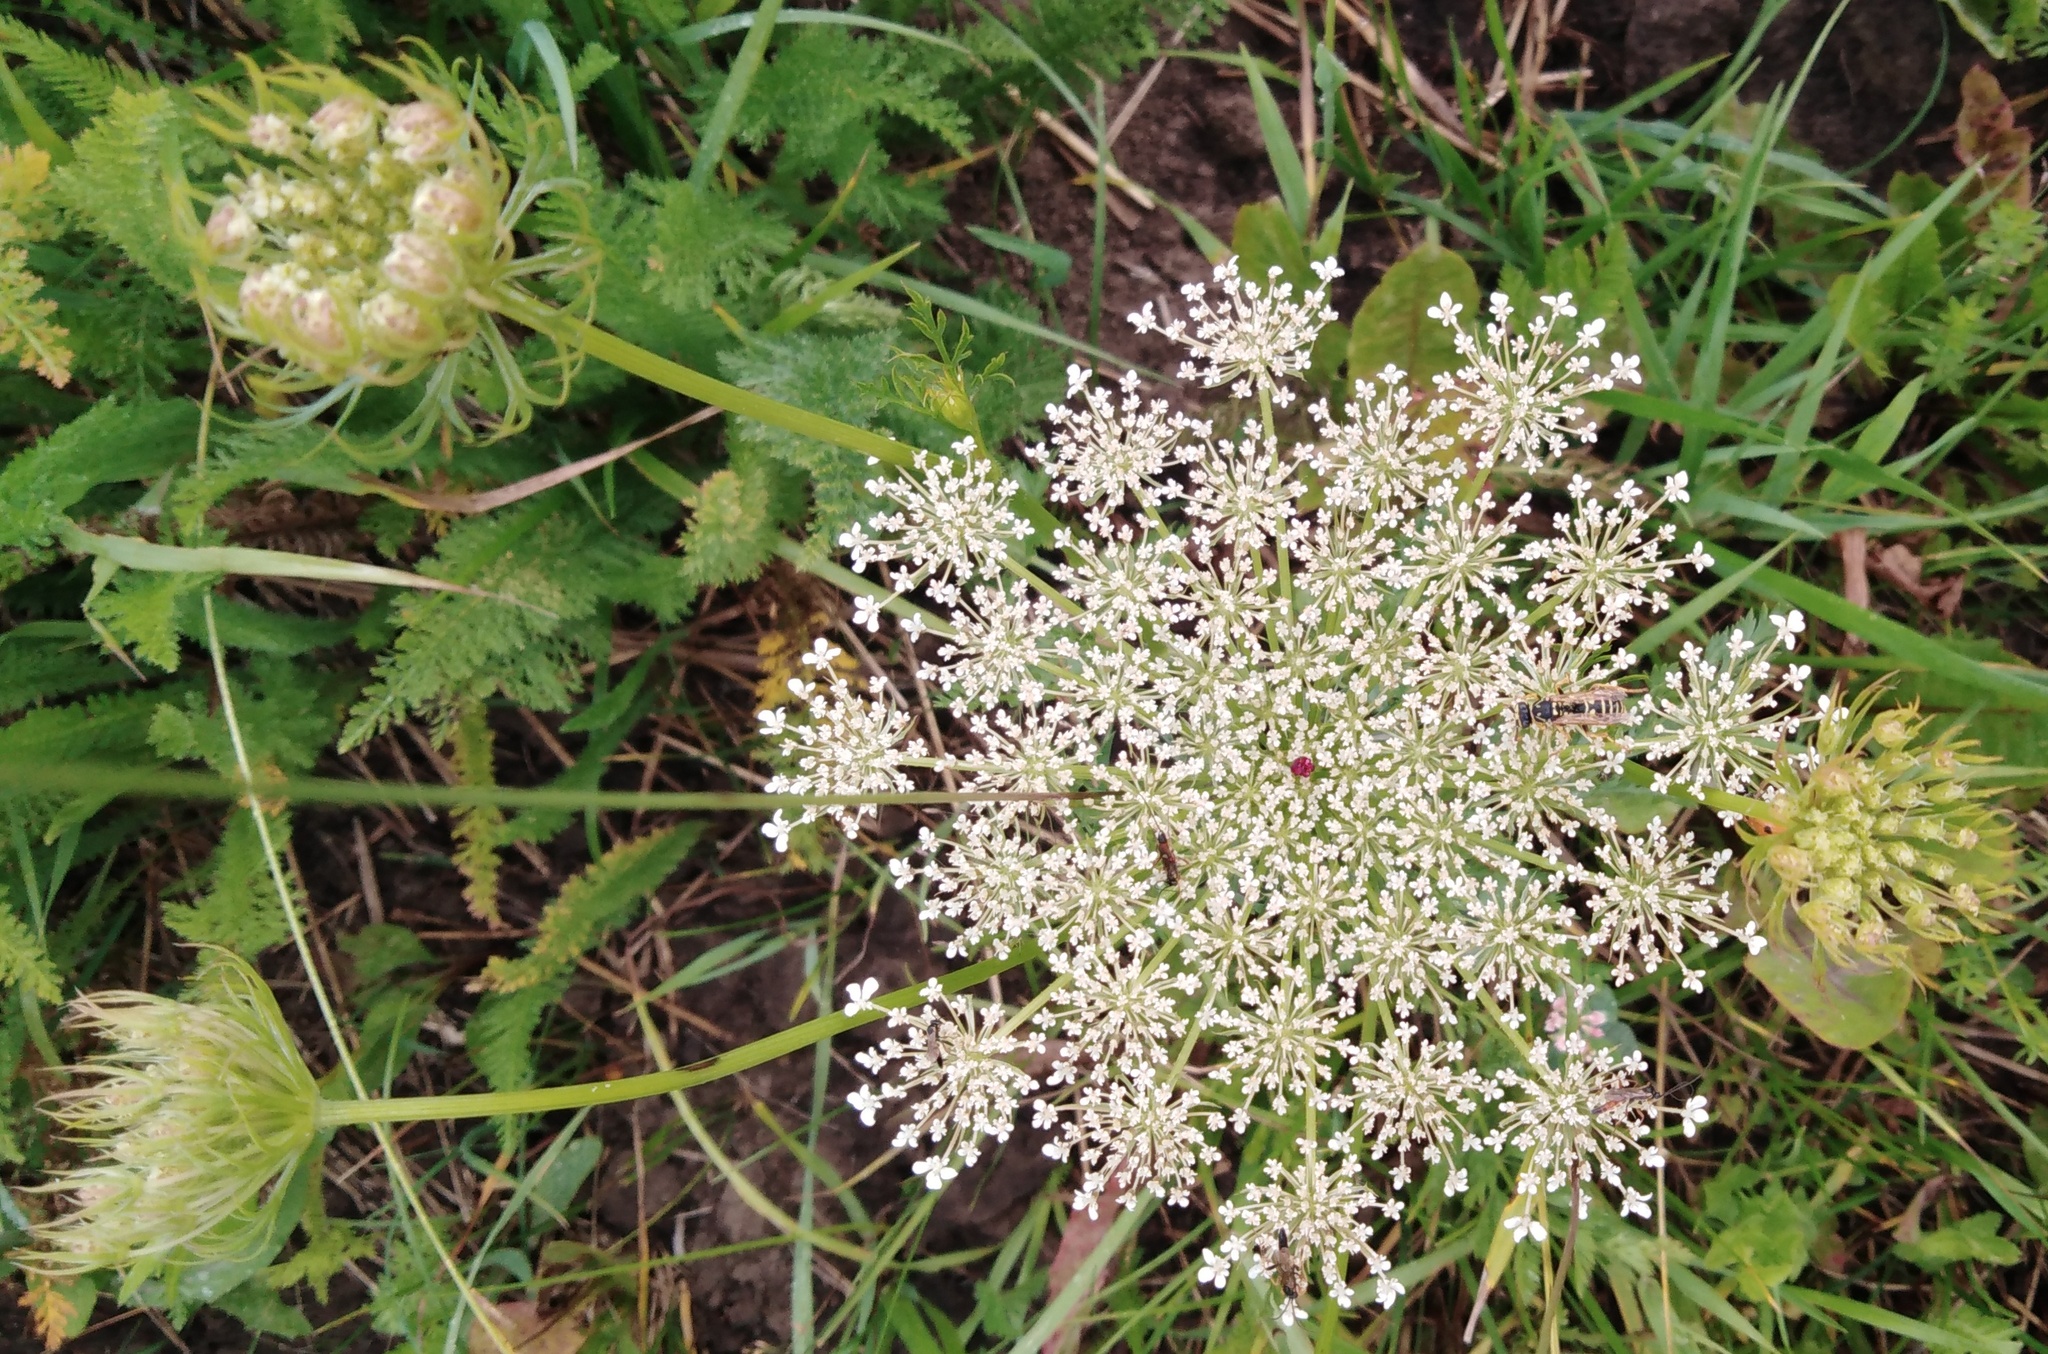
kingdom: Plantae
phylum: Tracheophyta
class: Magnoliopsida
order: Apiales
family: Apiaceae
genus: Daucus
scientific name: Daucus carota
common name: Wild carrot
